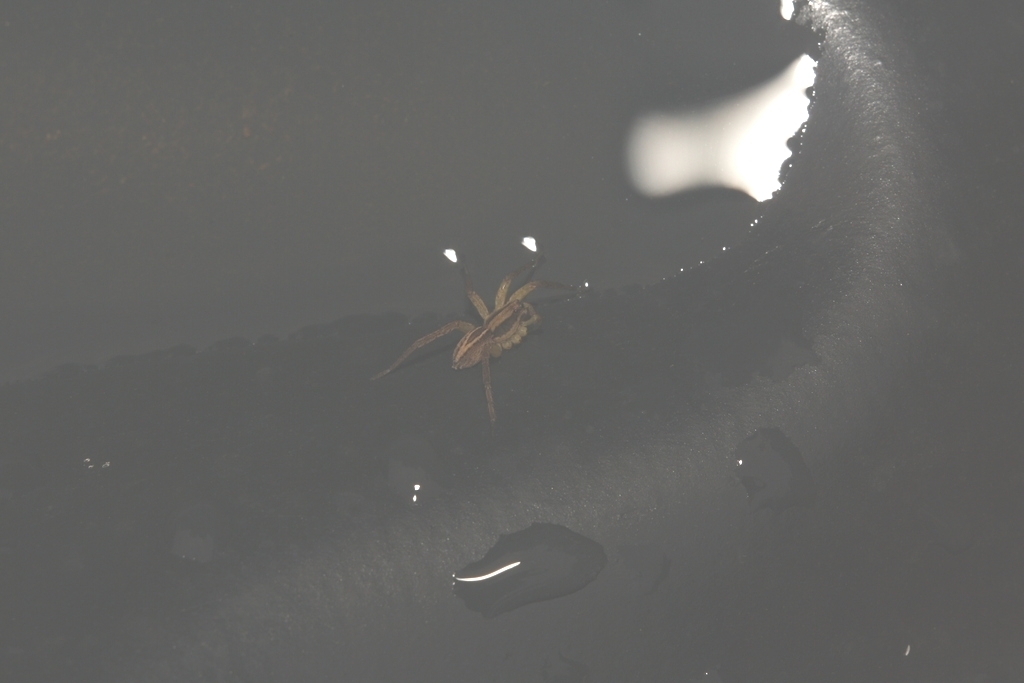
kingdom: Animalia
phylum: Arthropoda
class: Arachnida
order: Araneae
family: Lycosidae
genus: Alopecosa
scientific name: Alopecosa
